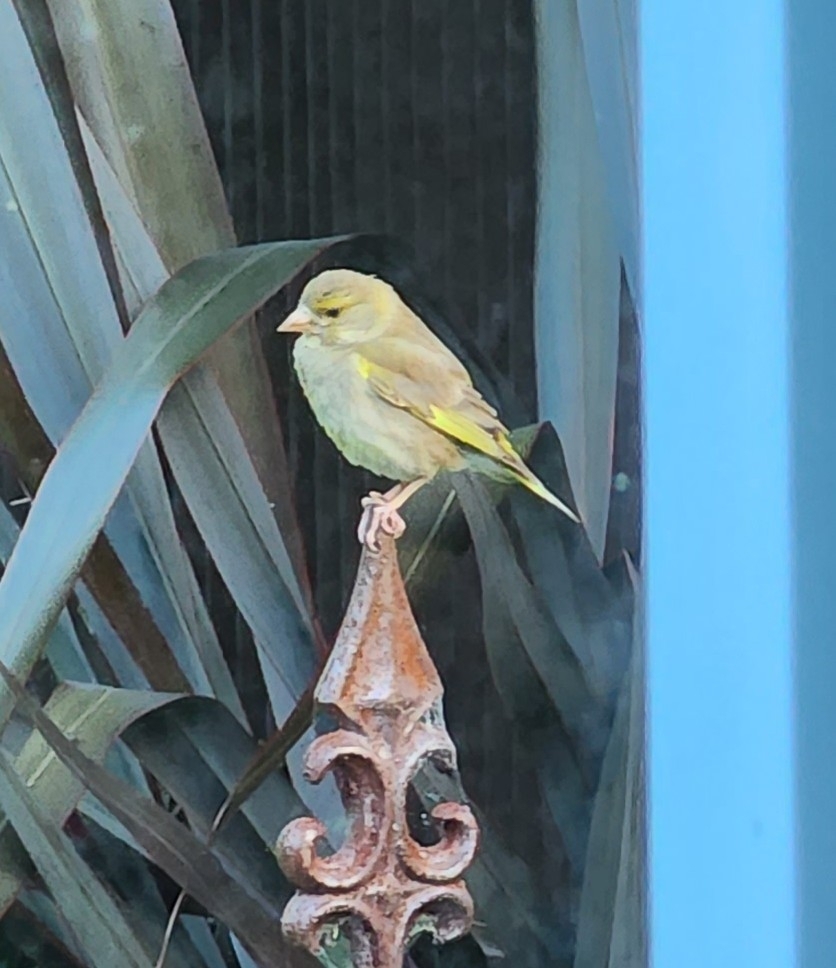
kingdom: Plantae
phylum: Tracheophyta
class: Liliopsida
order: Poales
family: Poaceae
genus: Chloris
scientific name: Chloris chloris
